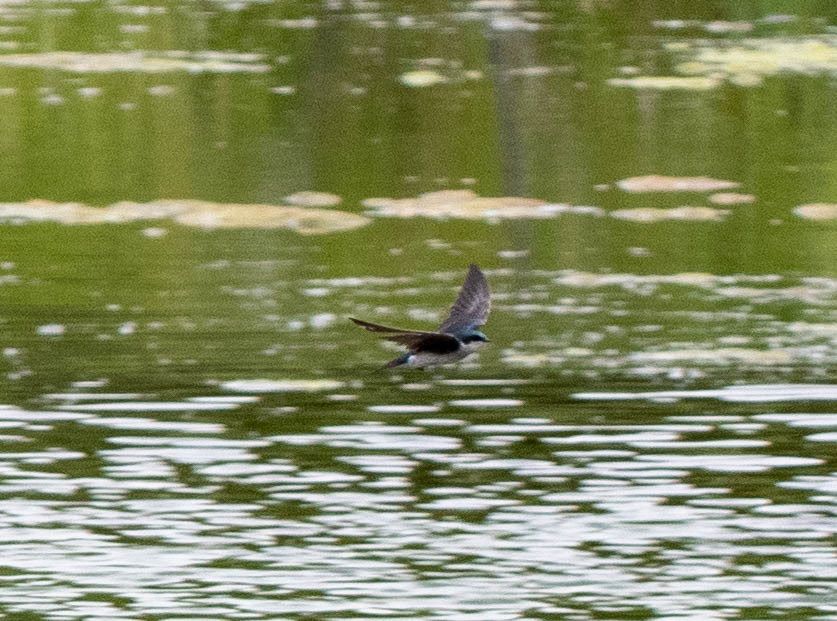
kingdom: Animalia
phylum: Chordata
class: Aves
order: Passeriformes
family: Hirundinidae
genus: Tachycineta
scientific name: Tachycineta bicolor
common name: Tree swallow
